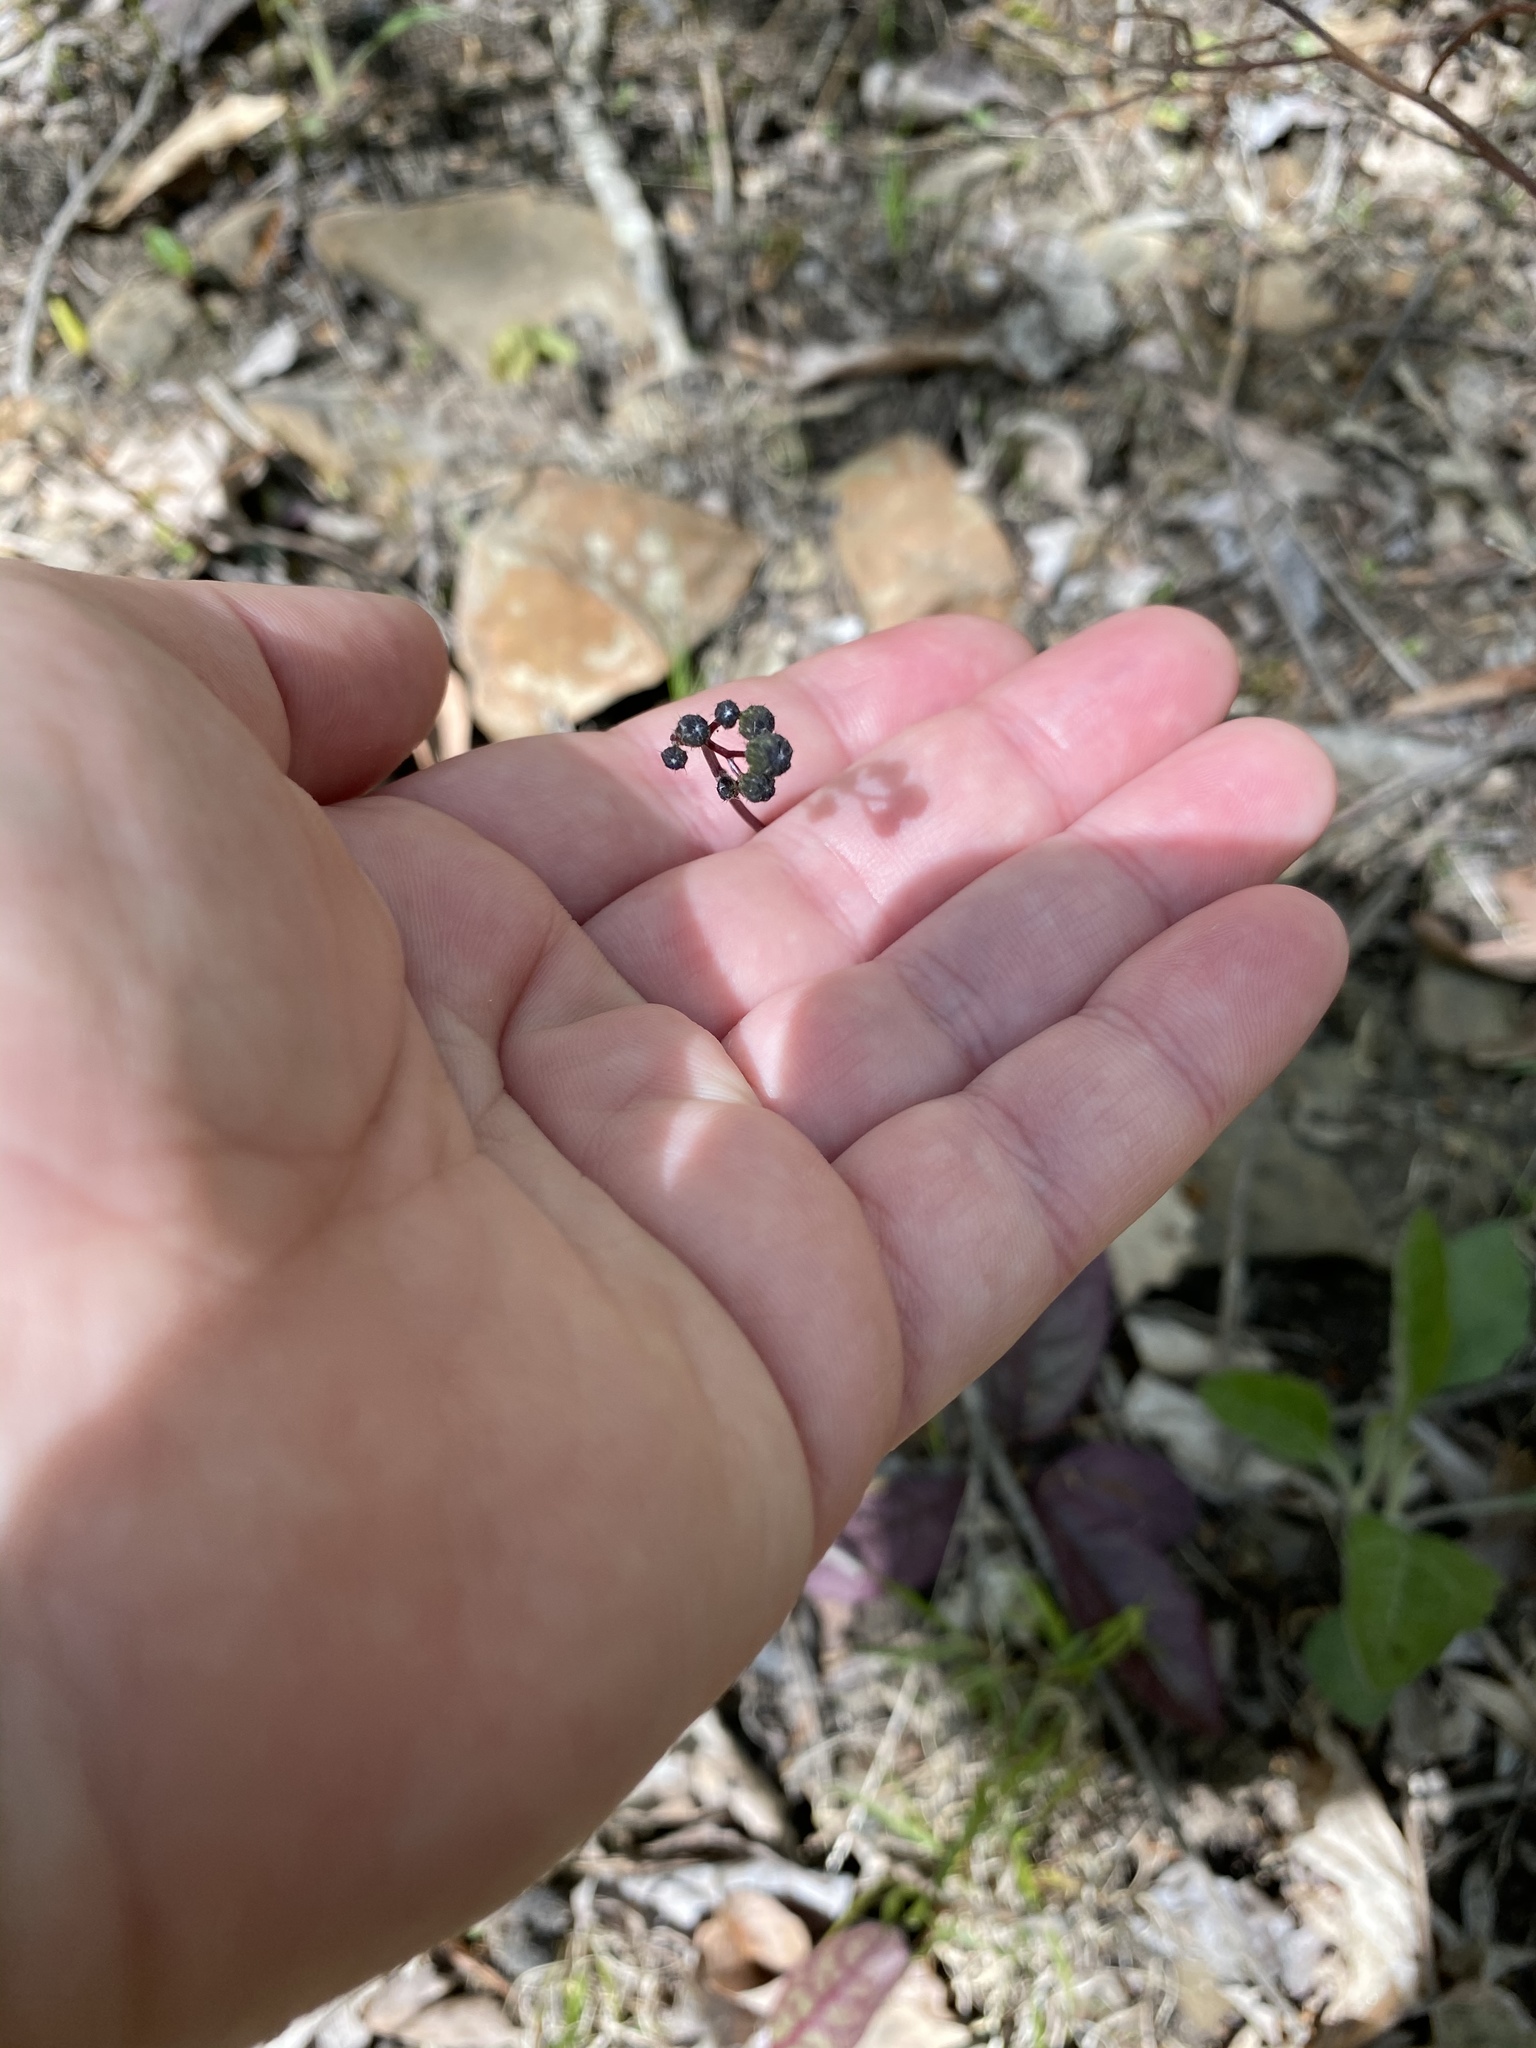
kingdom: Plantae
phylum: Tracheophyta
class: Magnoliopsida
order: Asterales
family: Asteraceae
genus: Hieracium
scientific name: Hieracium venosum
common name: Rattlesnake hawkweed
